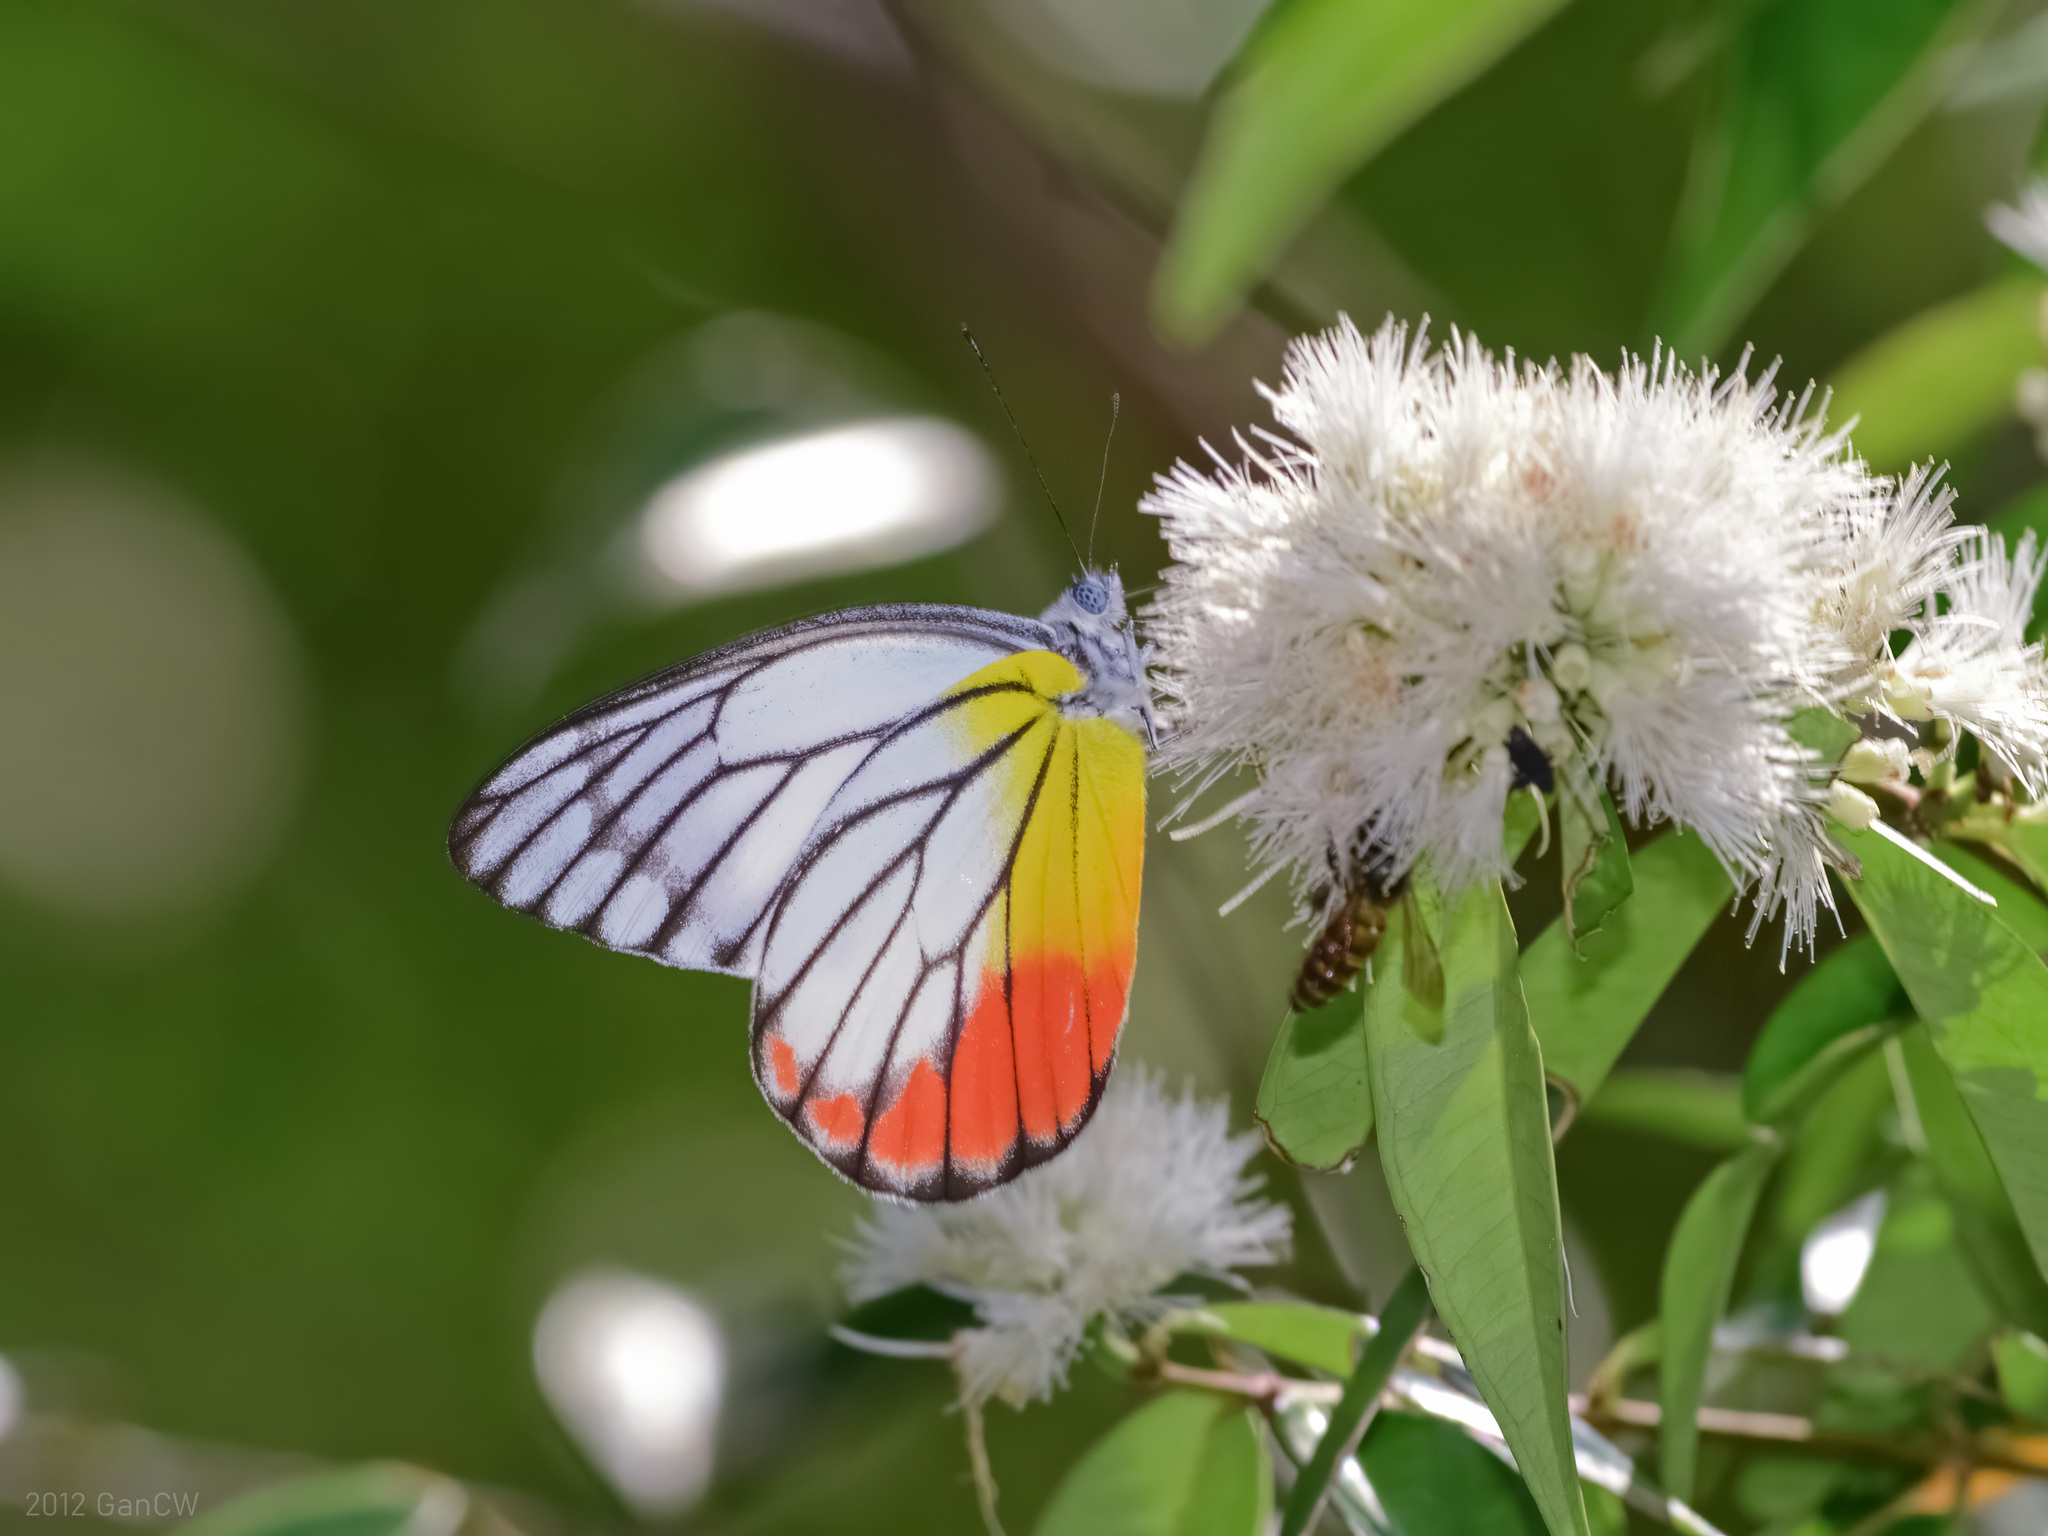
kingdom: Animalia
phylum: Arthropoda
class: Insecta
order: Lepidoptera
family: Pieridae
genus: Delias
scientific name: Delias hyparete
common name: Painted jezebel
